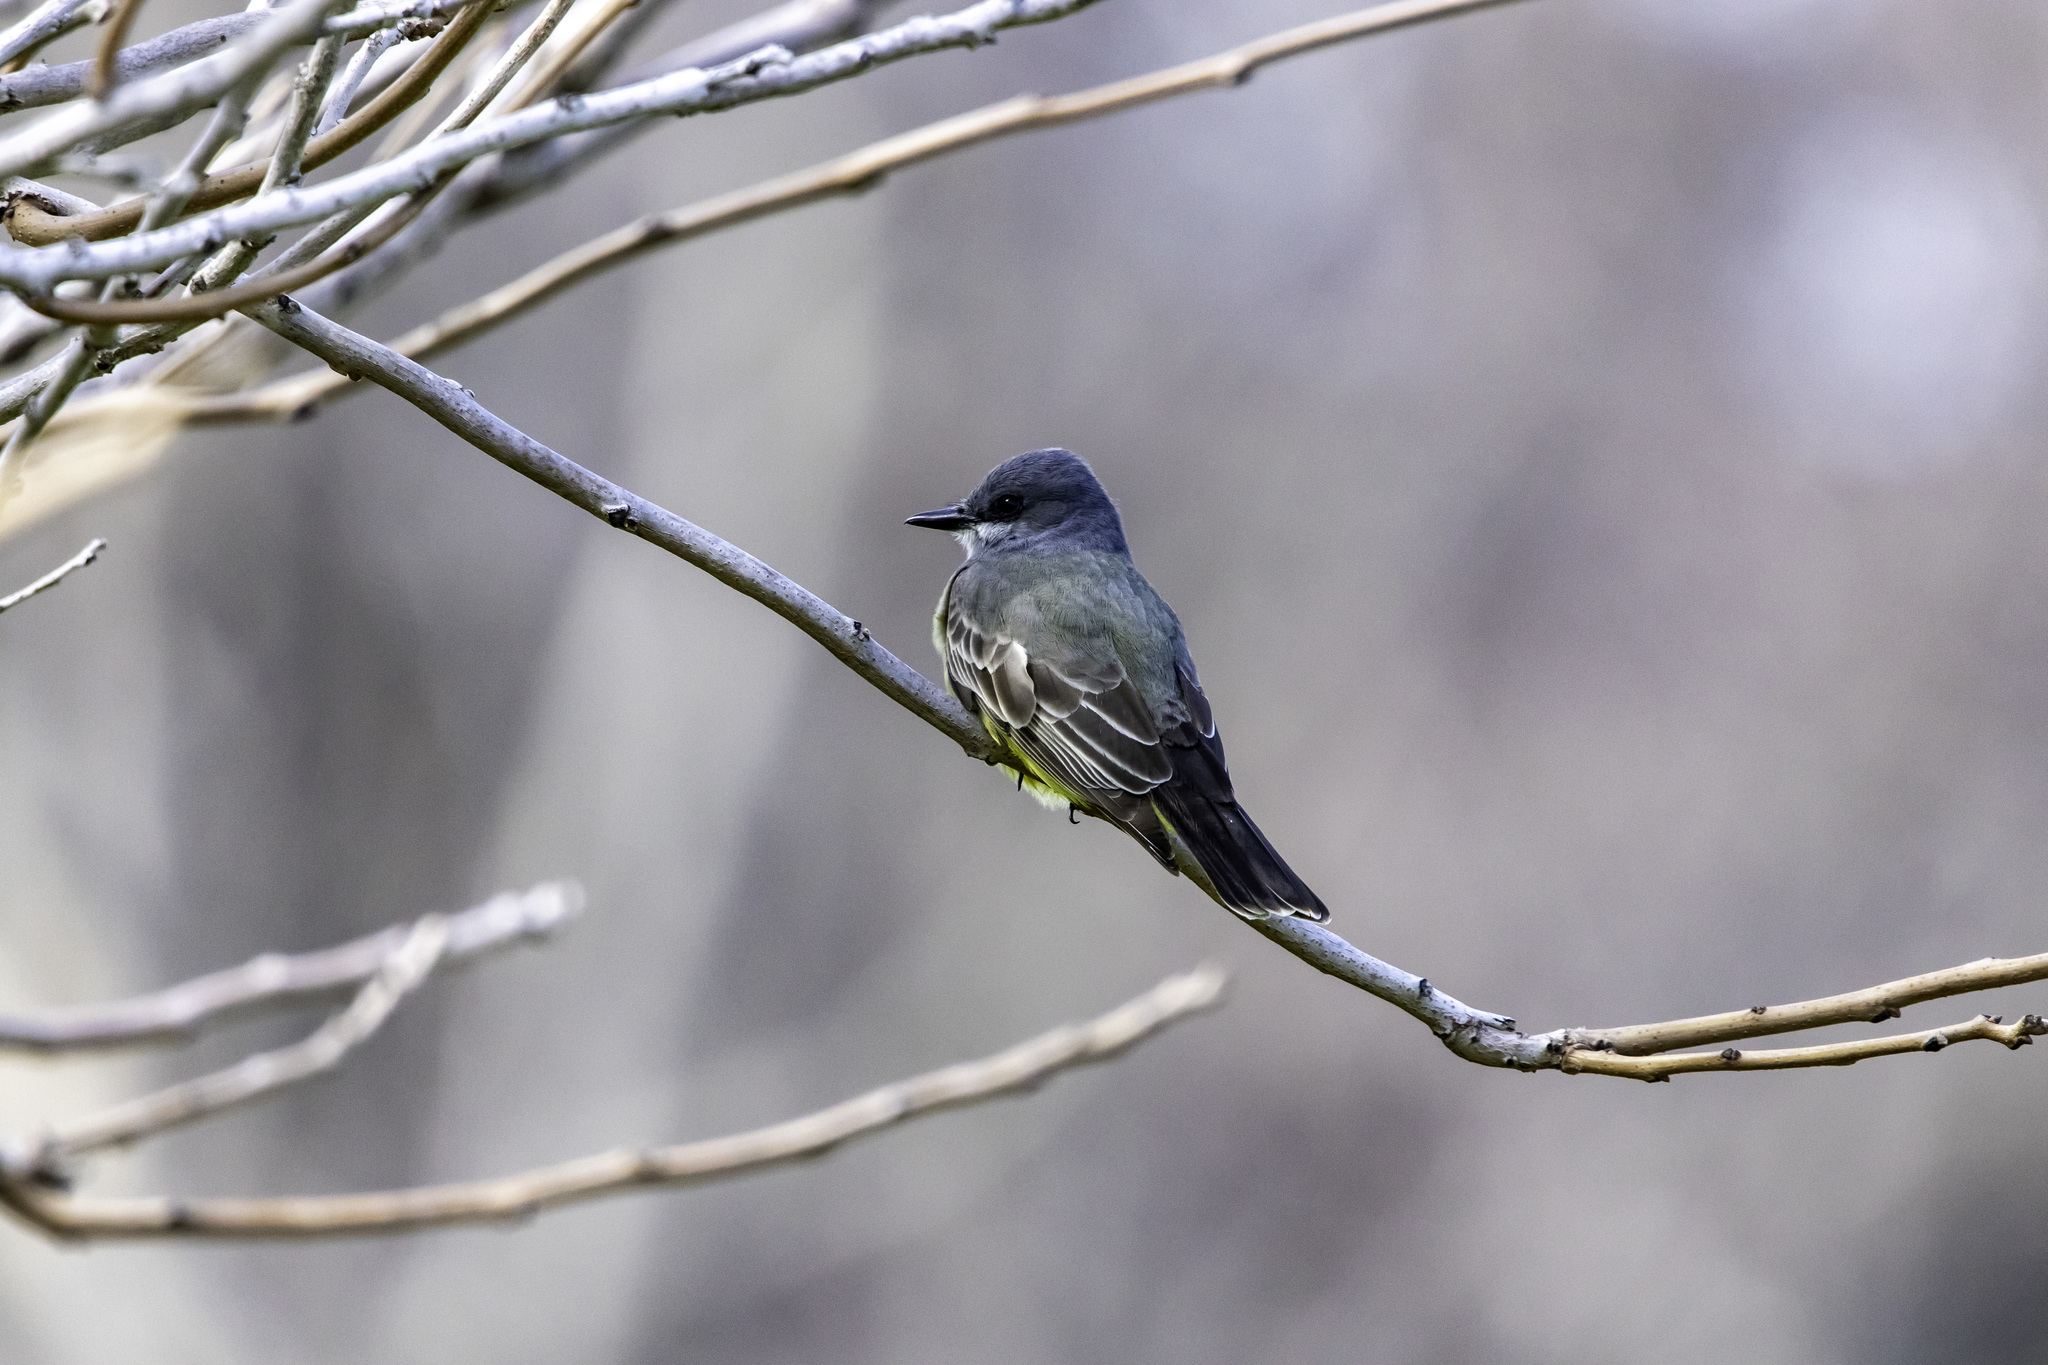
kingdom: Animalia
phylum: Chordata
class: Aves
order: Passeriformes
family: Tyrannidae
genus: Tyrannus
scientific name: Tyrannus vociferans
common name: Cassin's kingbird
